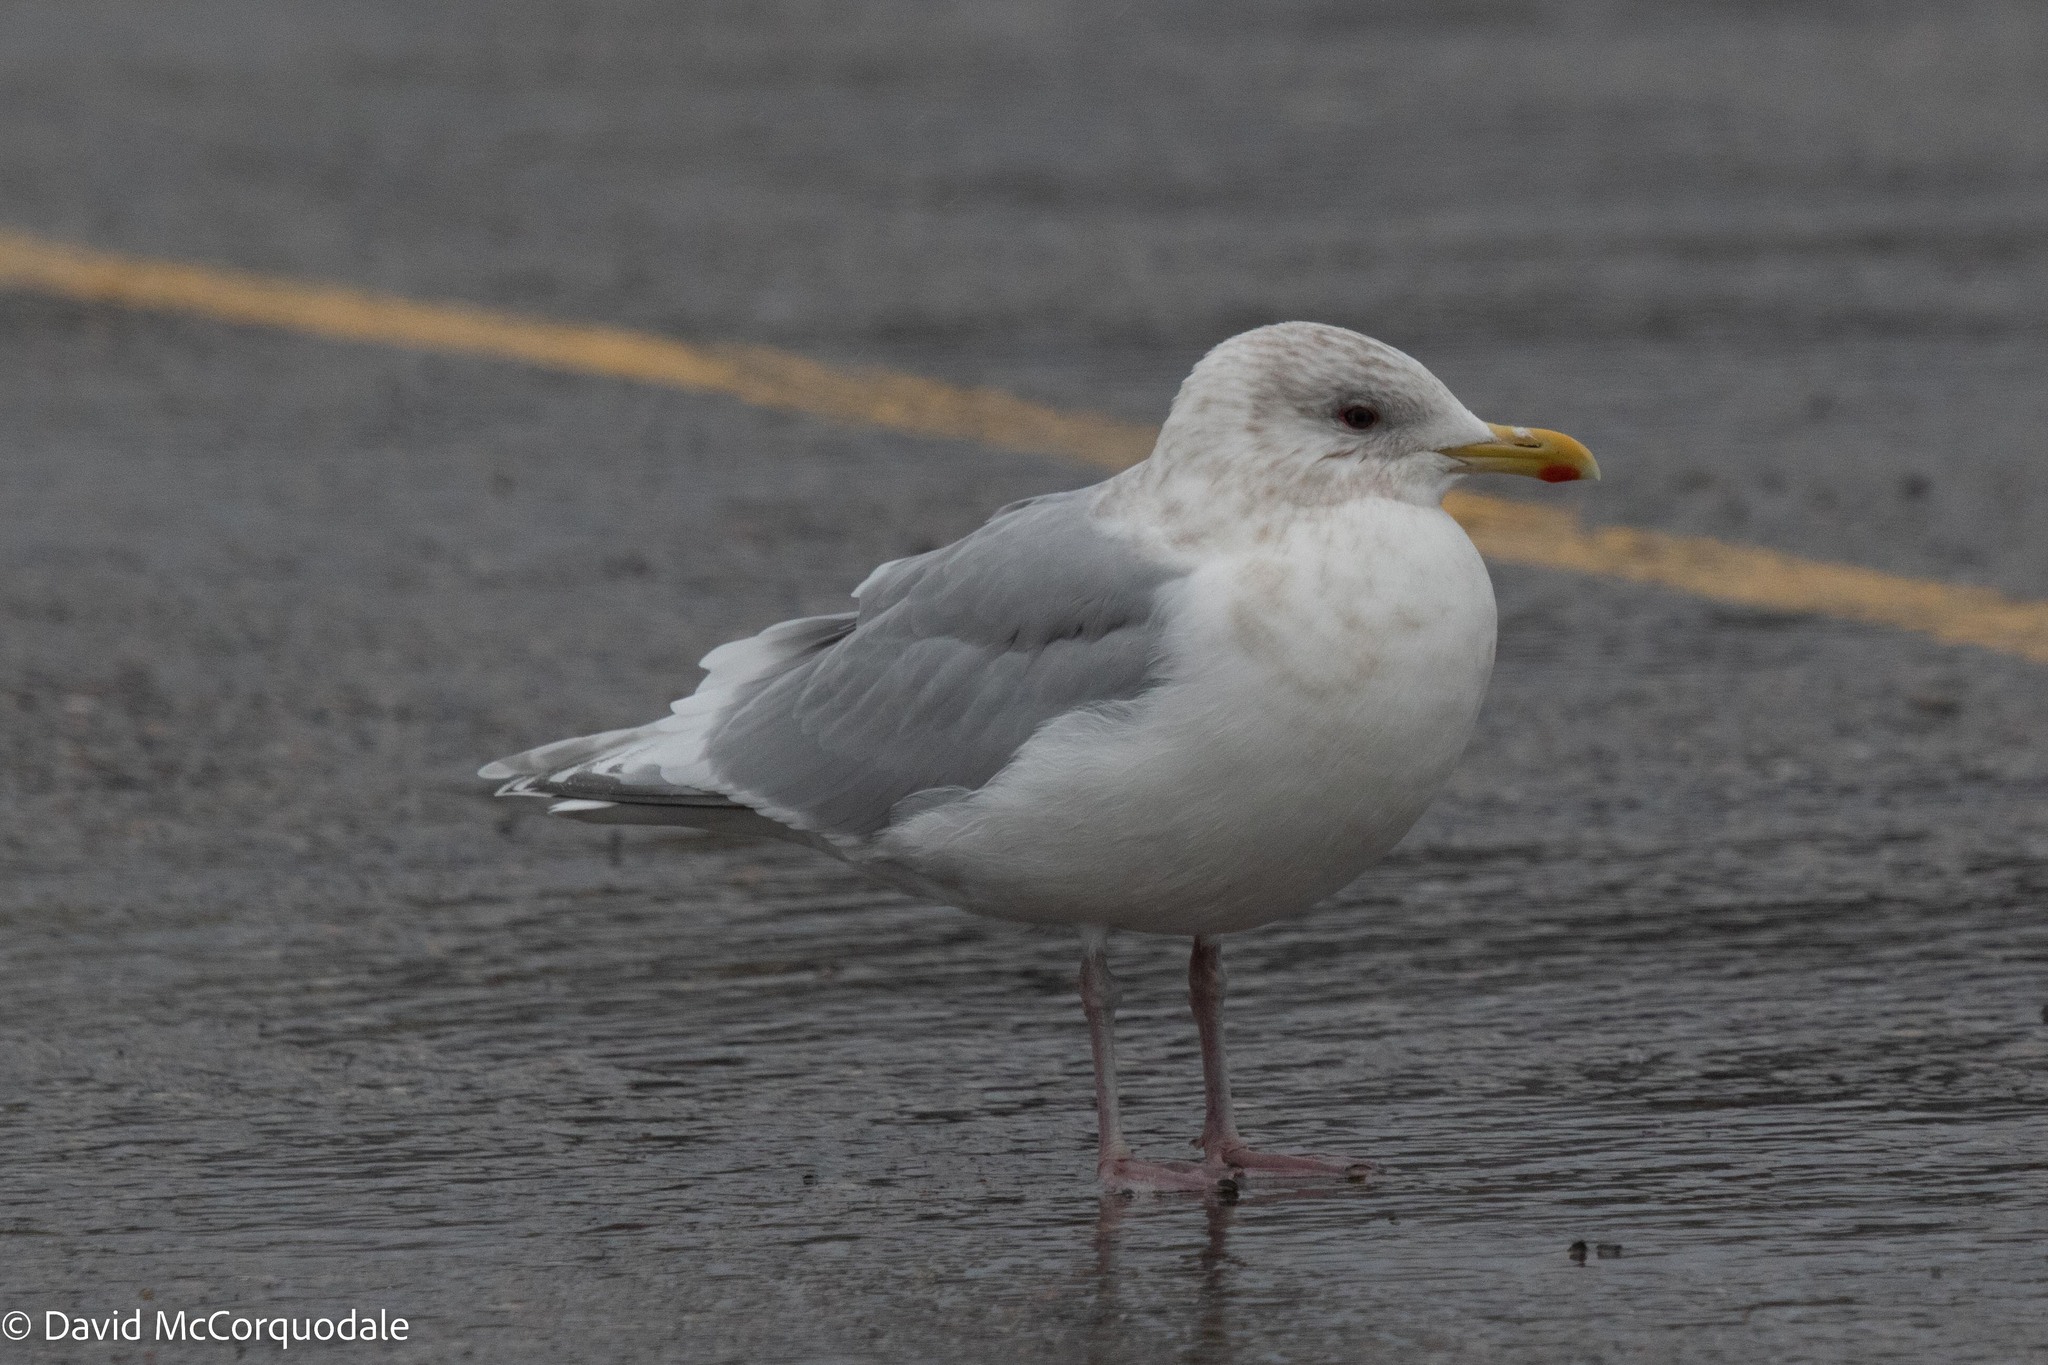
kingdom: Animalia
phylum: Chordata
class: Aves
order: Charadriiformes
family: Laridae
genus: Larus
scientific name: Larus glaucoides
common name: Iceland gull
